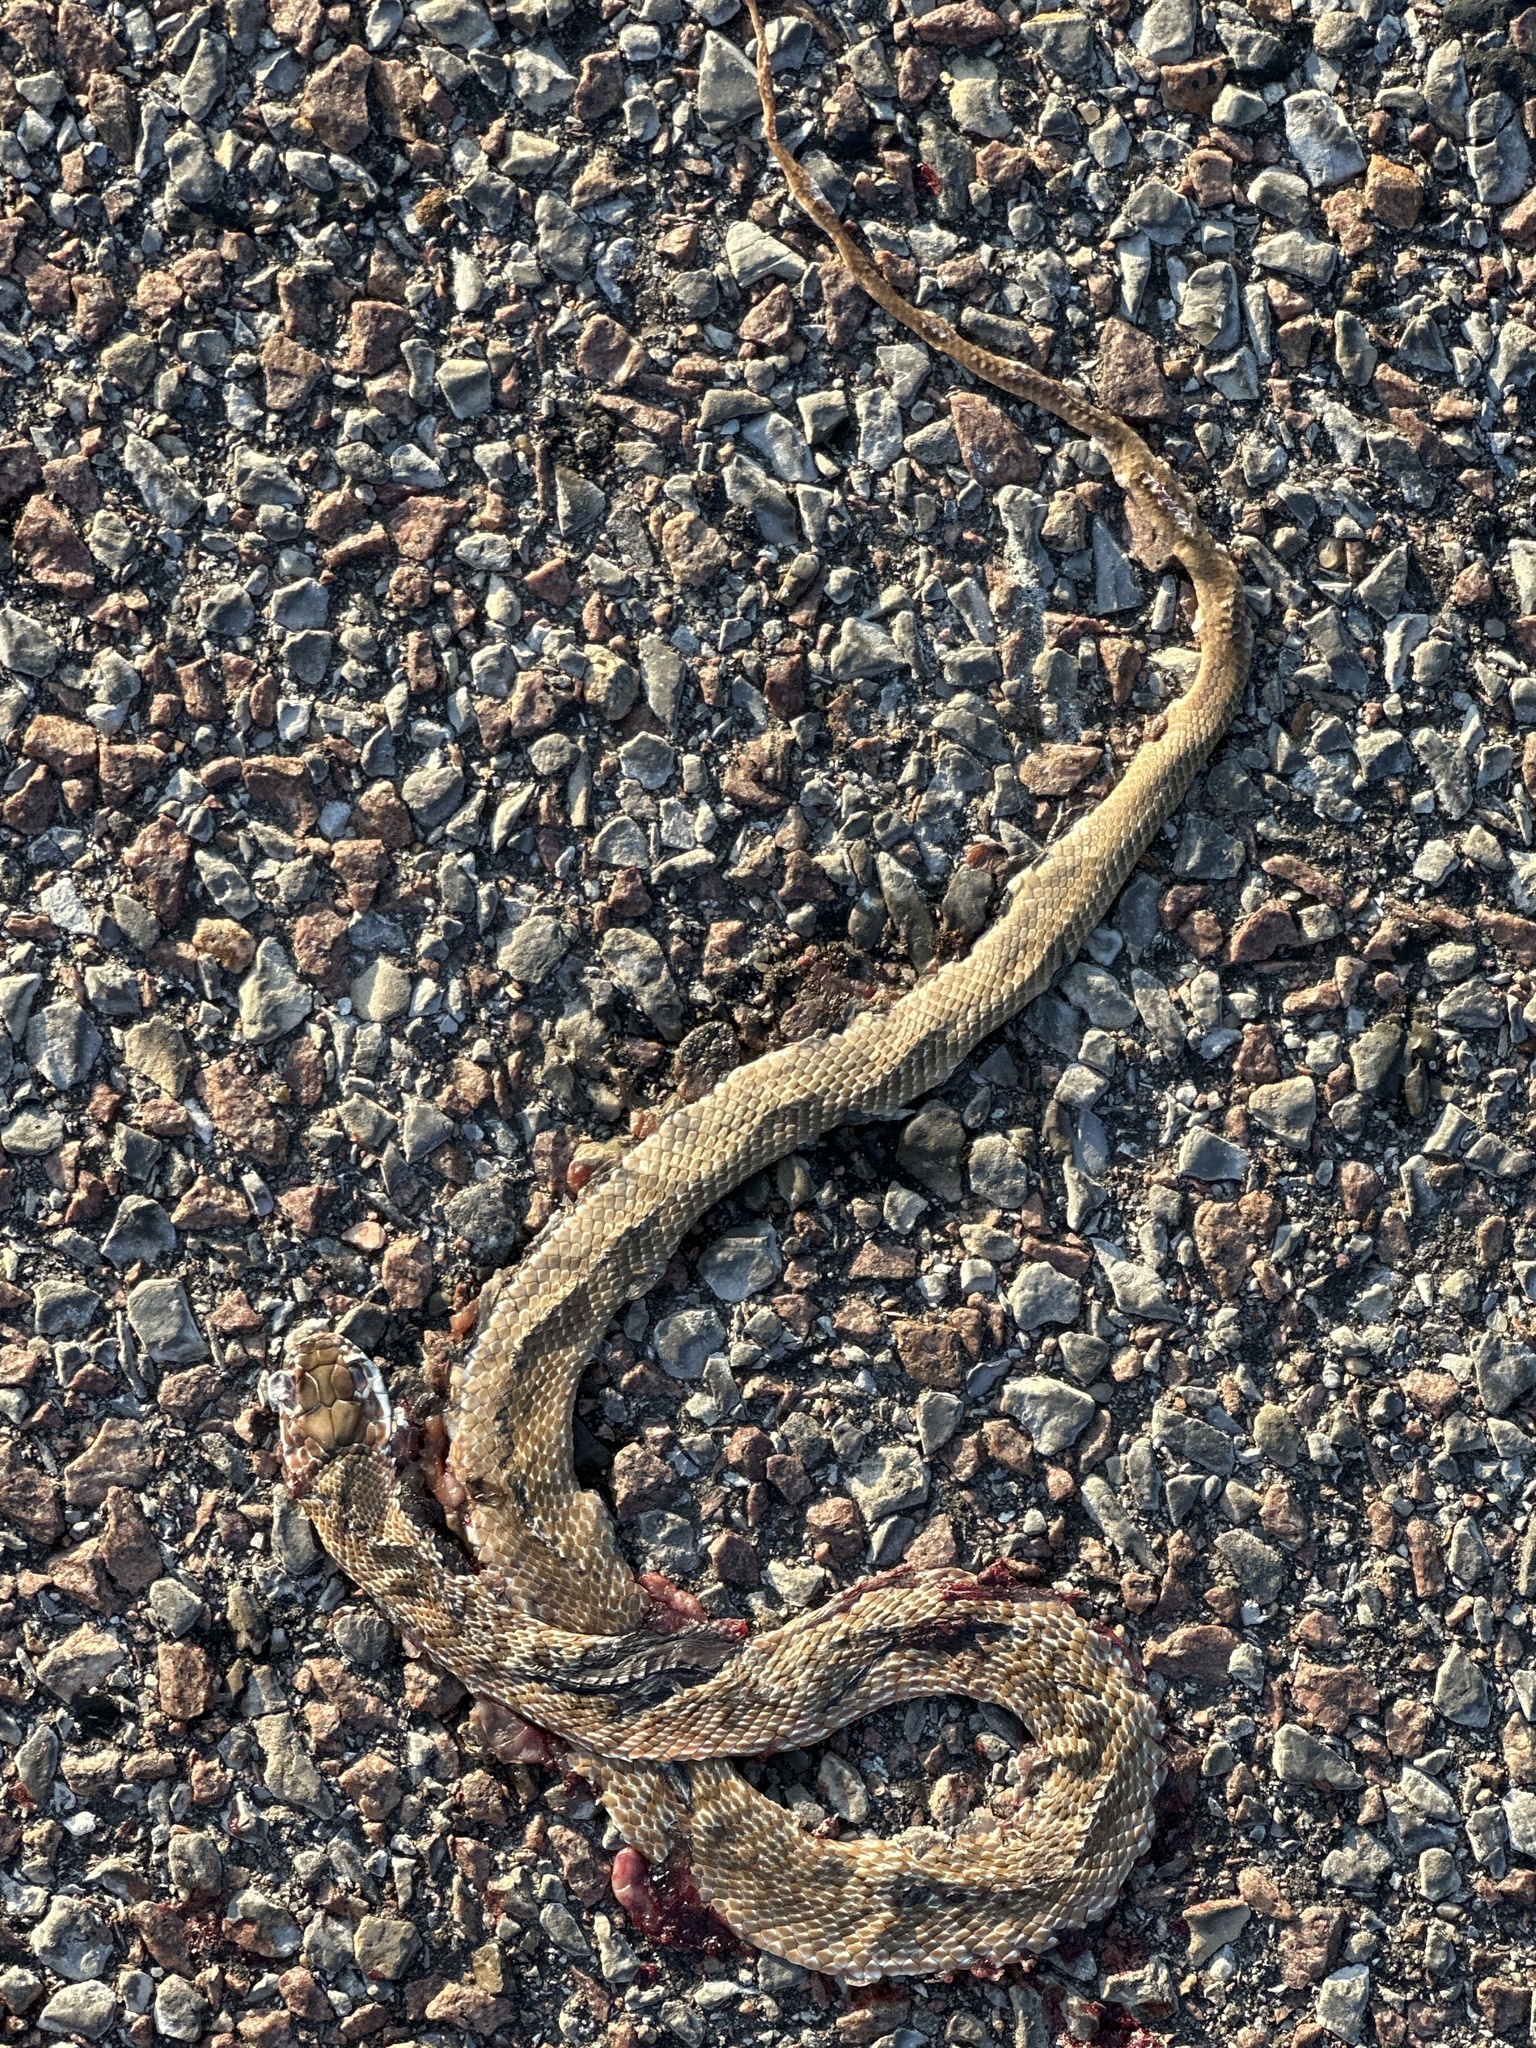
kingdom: Animalia
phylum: Chordata
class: Squamata
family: Colubridae
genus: Masticophis
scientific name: Masticophis flagellum
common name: Coachwhip
